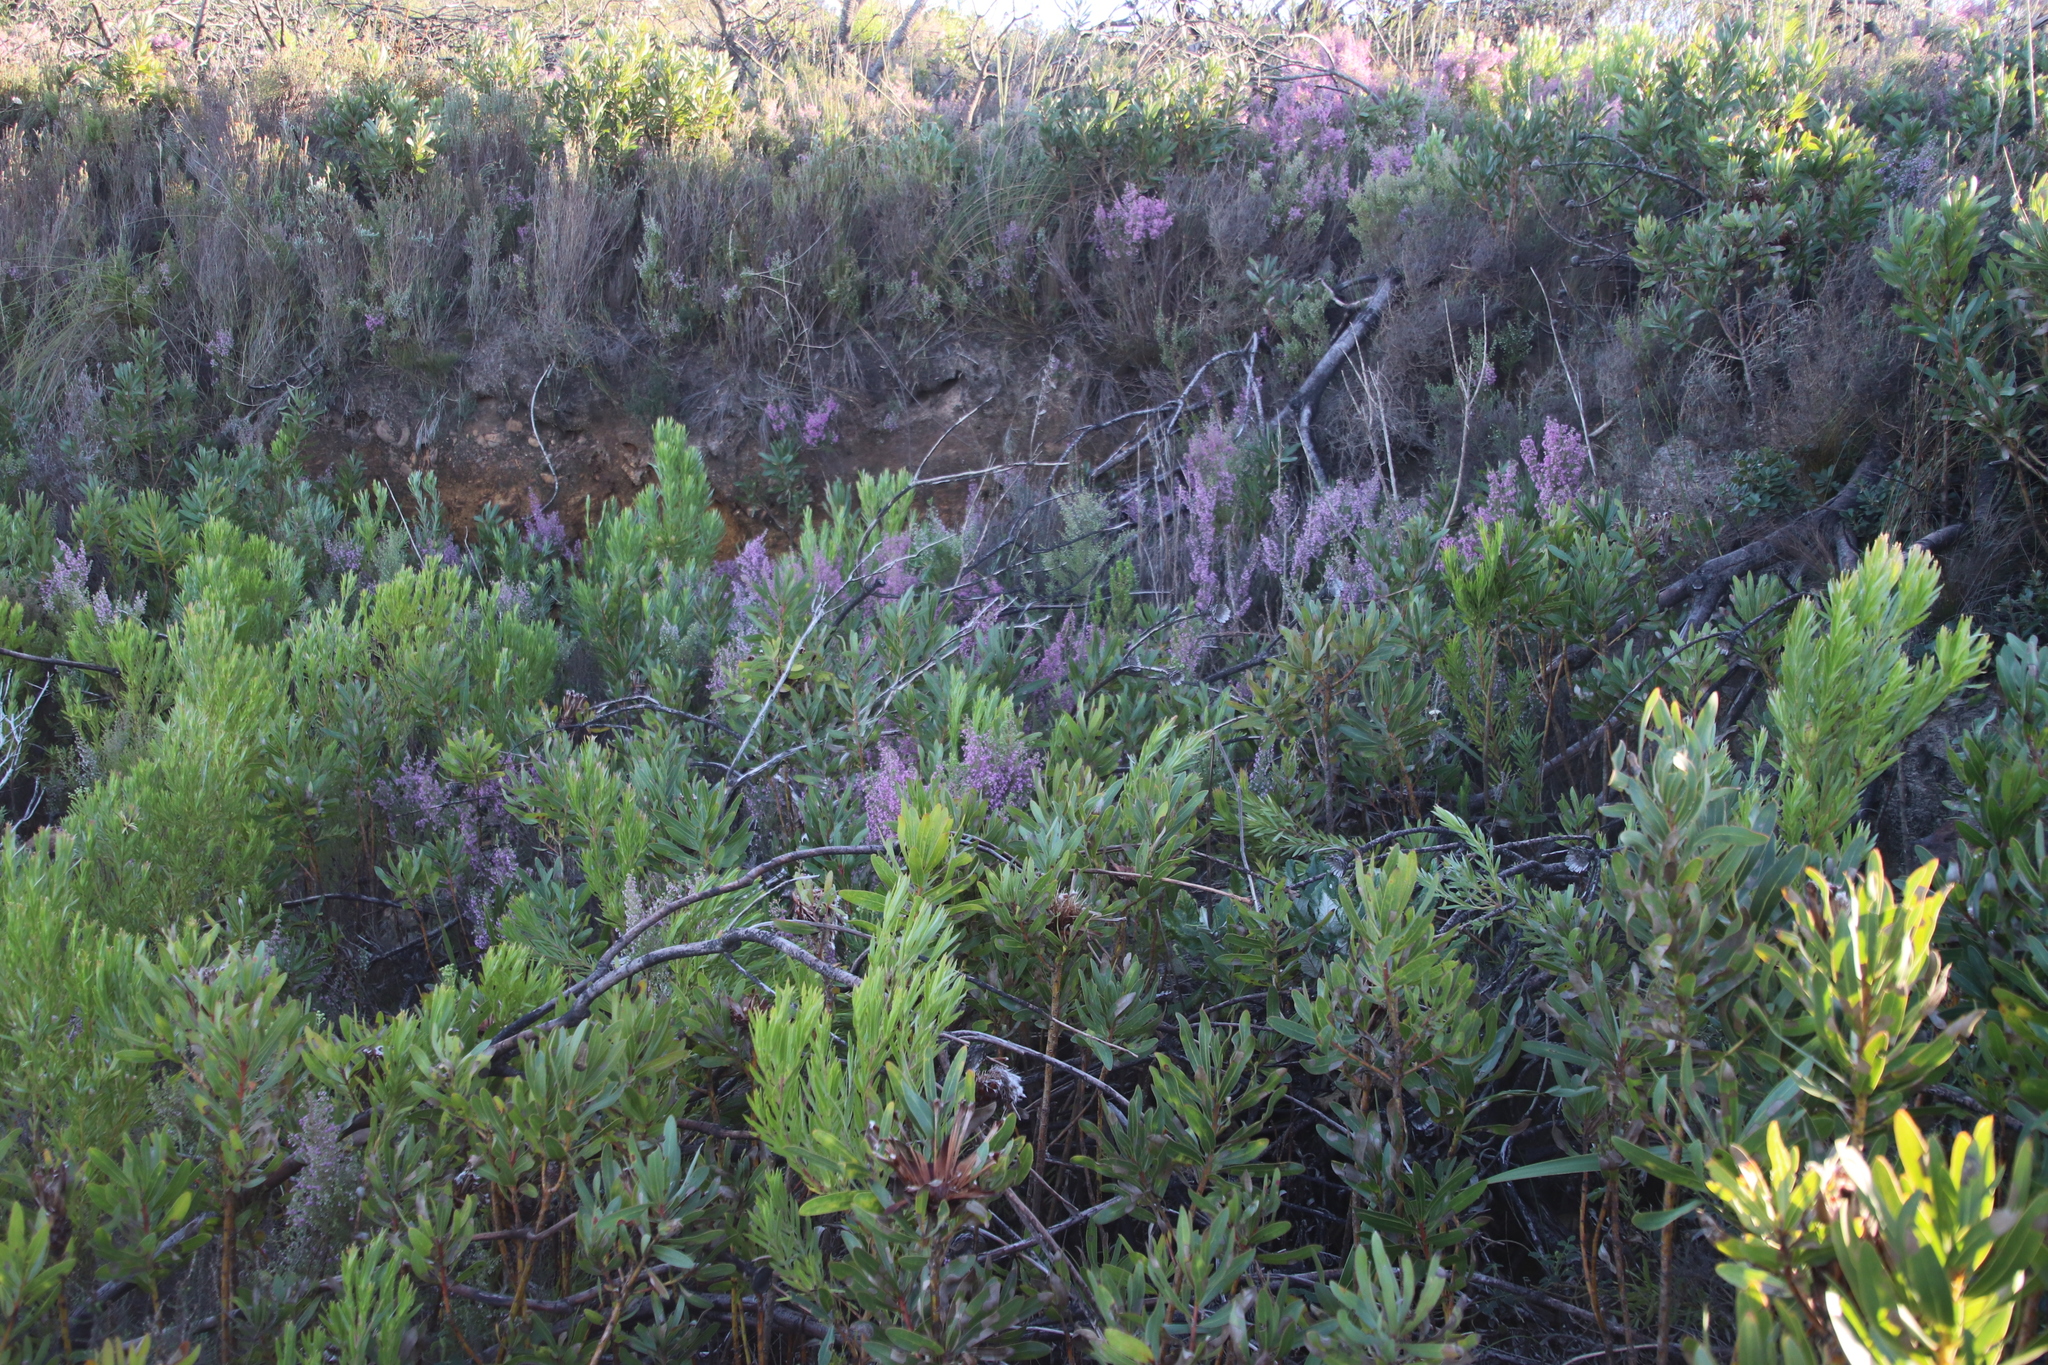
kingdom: Plantae
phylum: Tracheophyta
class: Magnoliopsida
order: Ericales
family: Ericaceae
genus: Erica
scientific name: Erica hirtiflora
